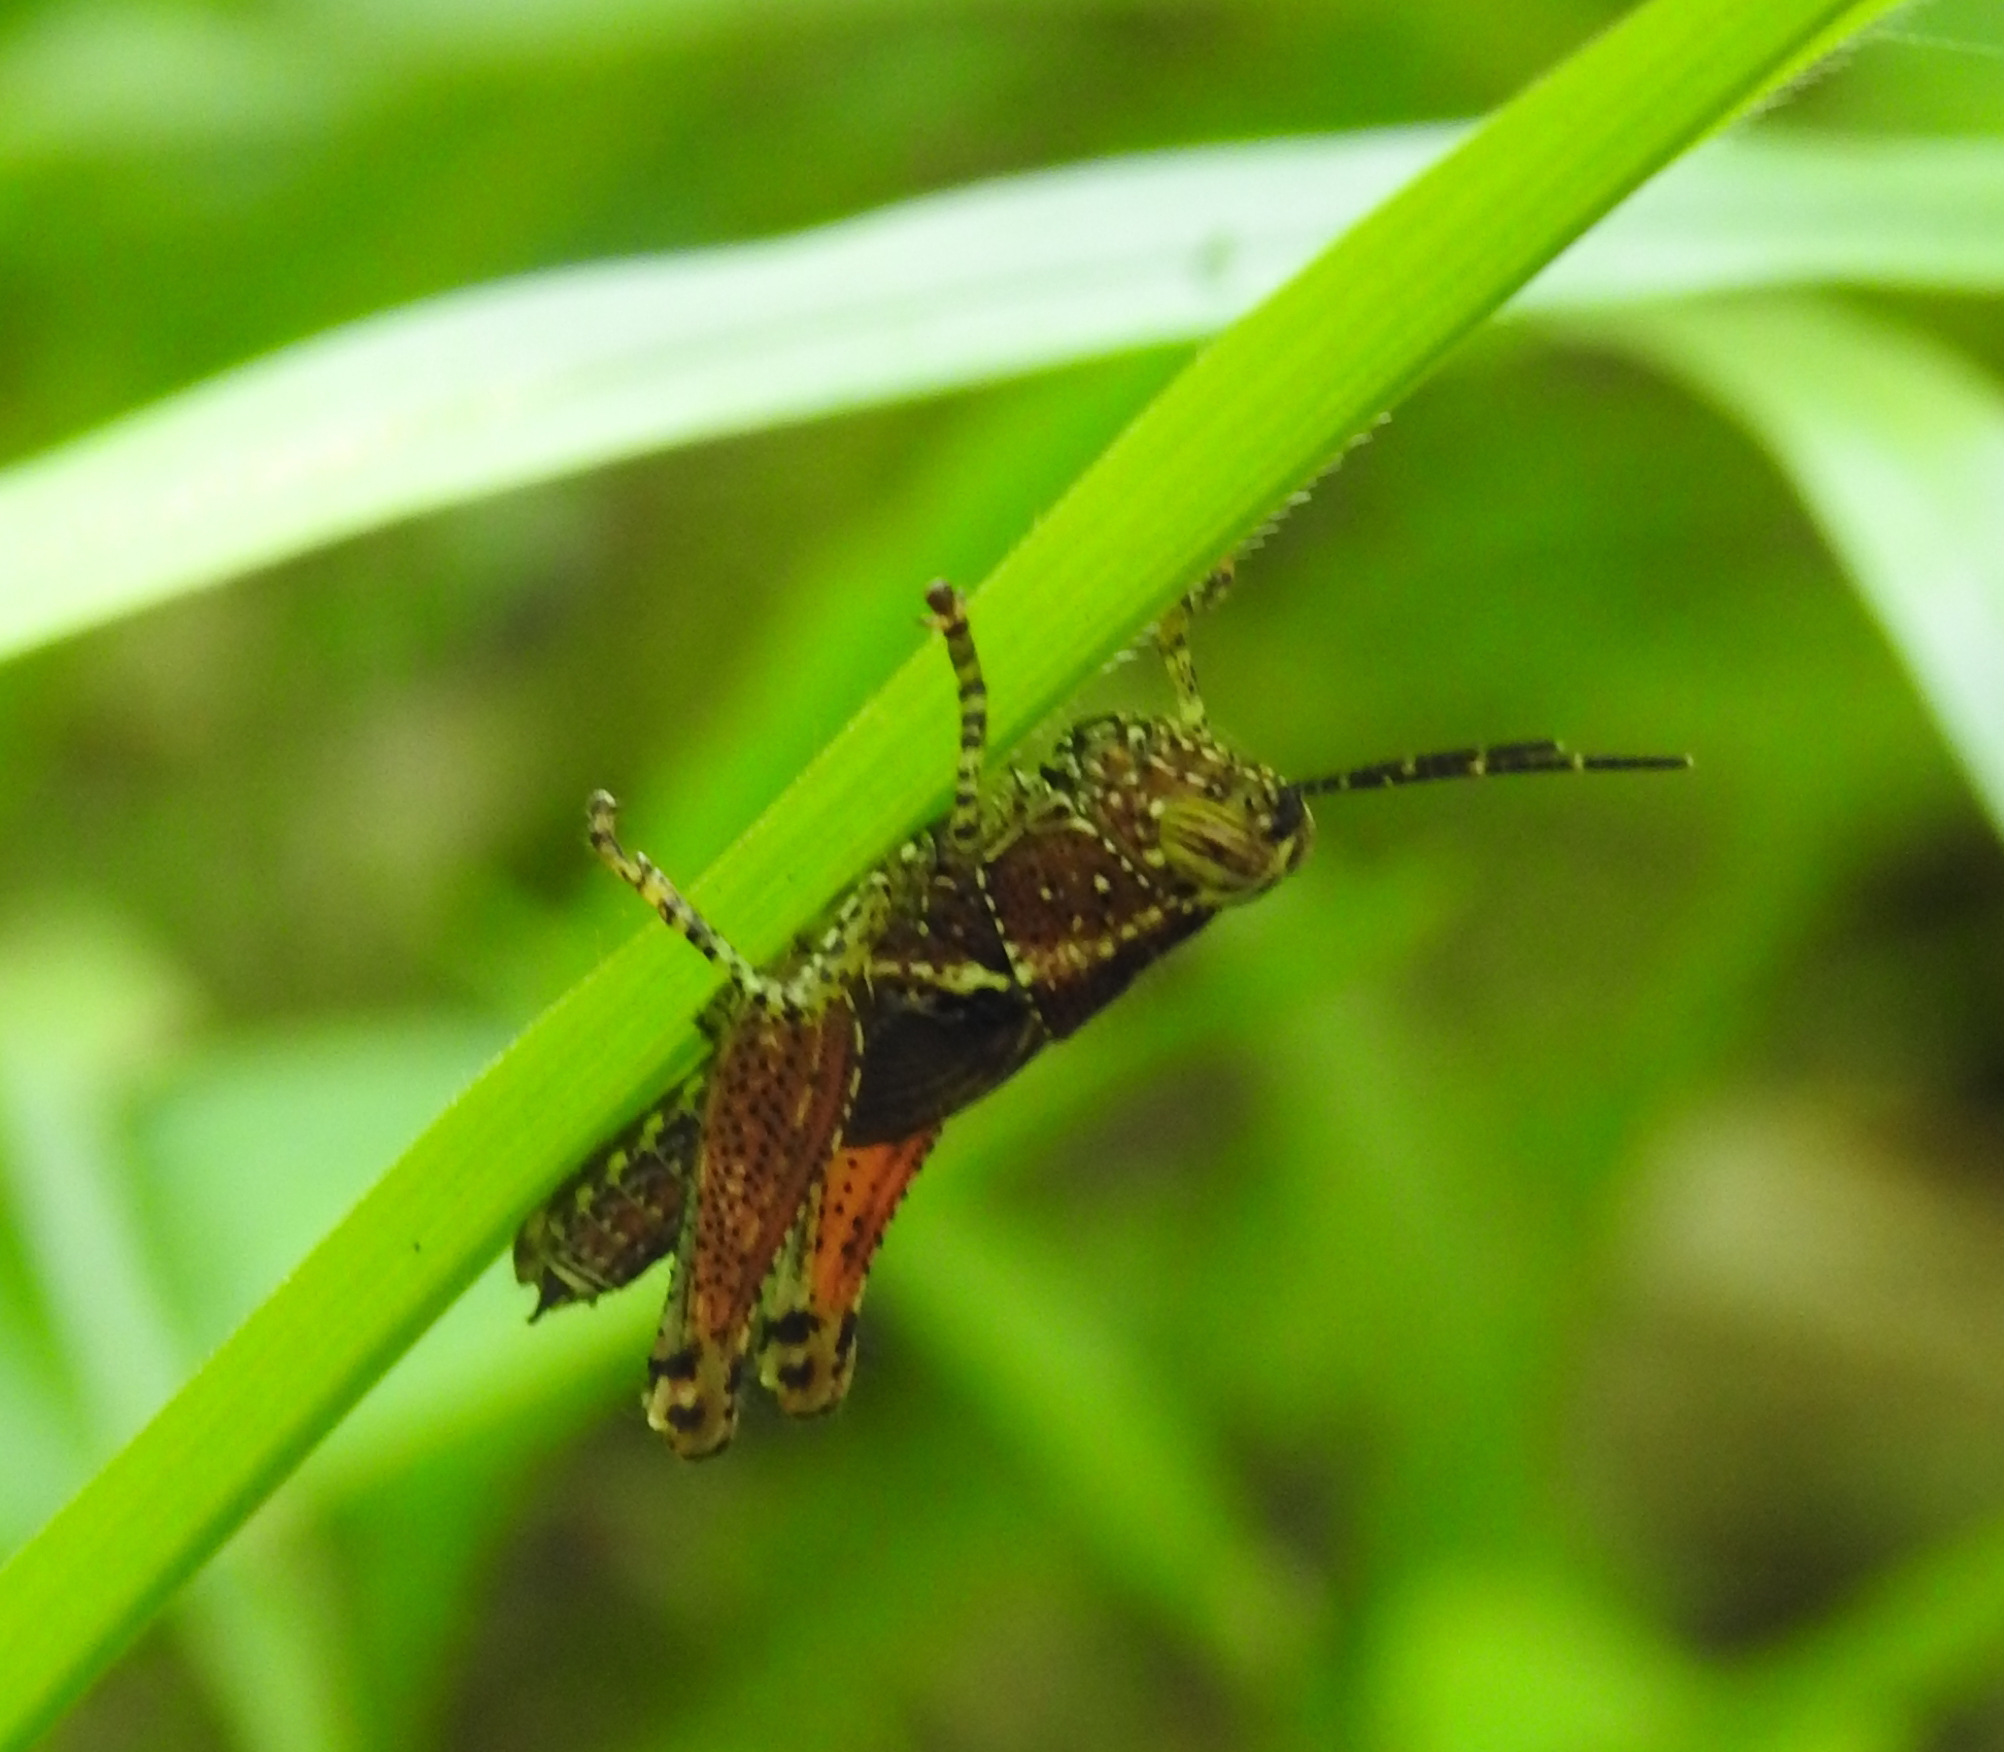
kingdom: Animalia
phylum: Arthropoda
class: Insecta
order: Orthoptera
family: Acrididae
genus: Xenocatantops
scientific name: Xenocatantops humile
